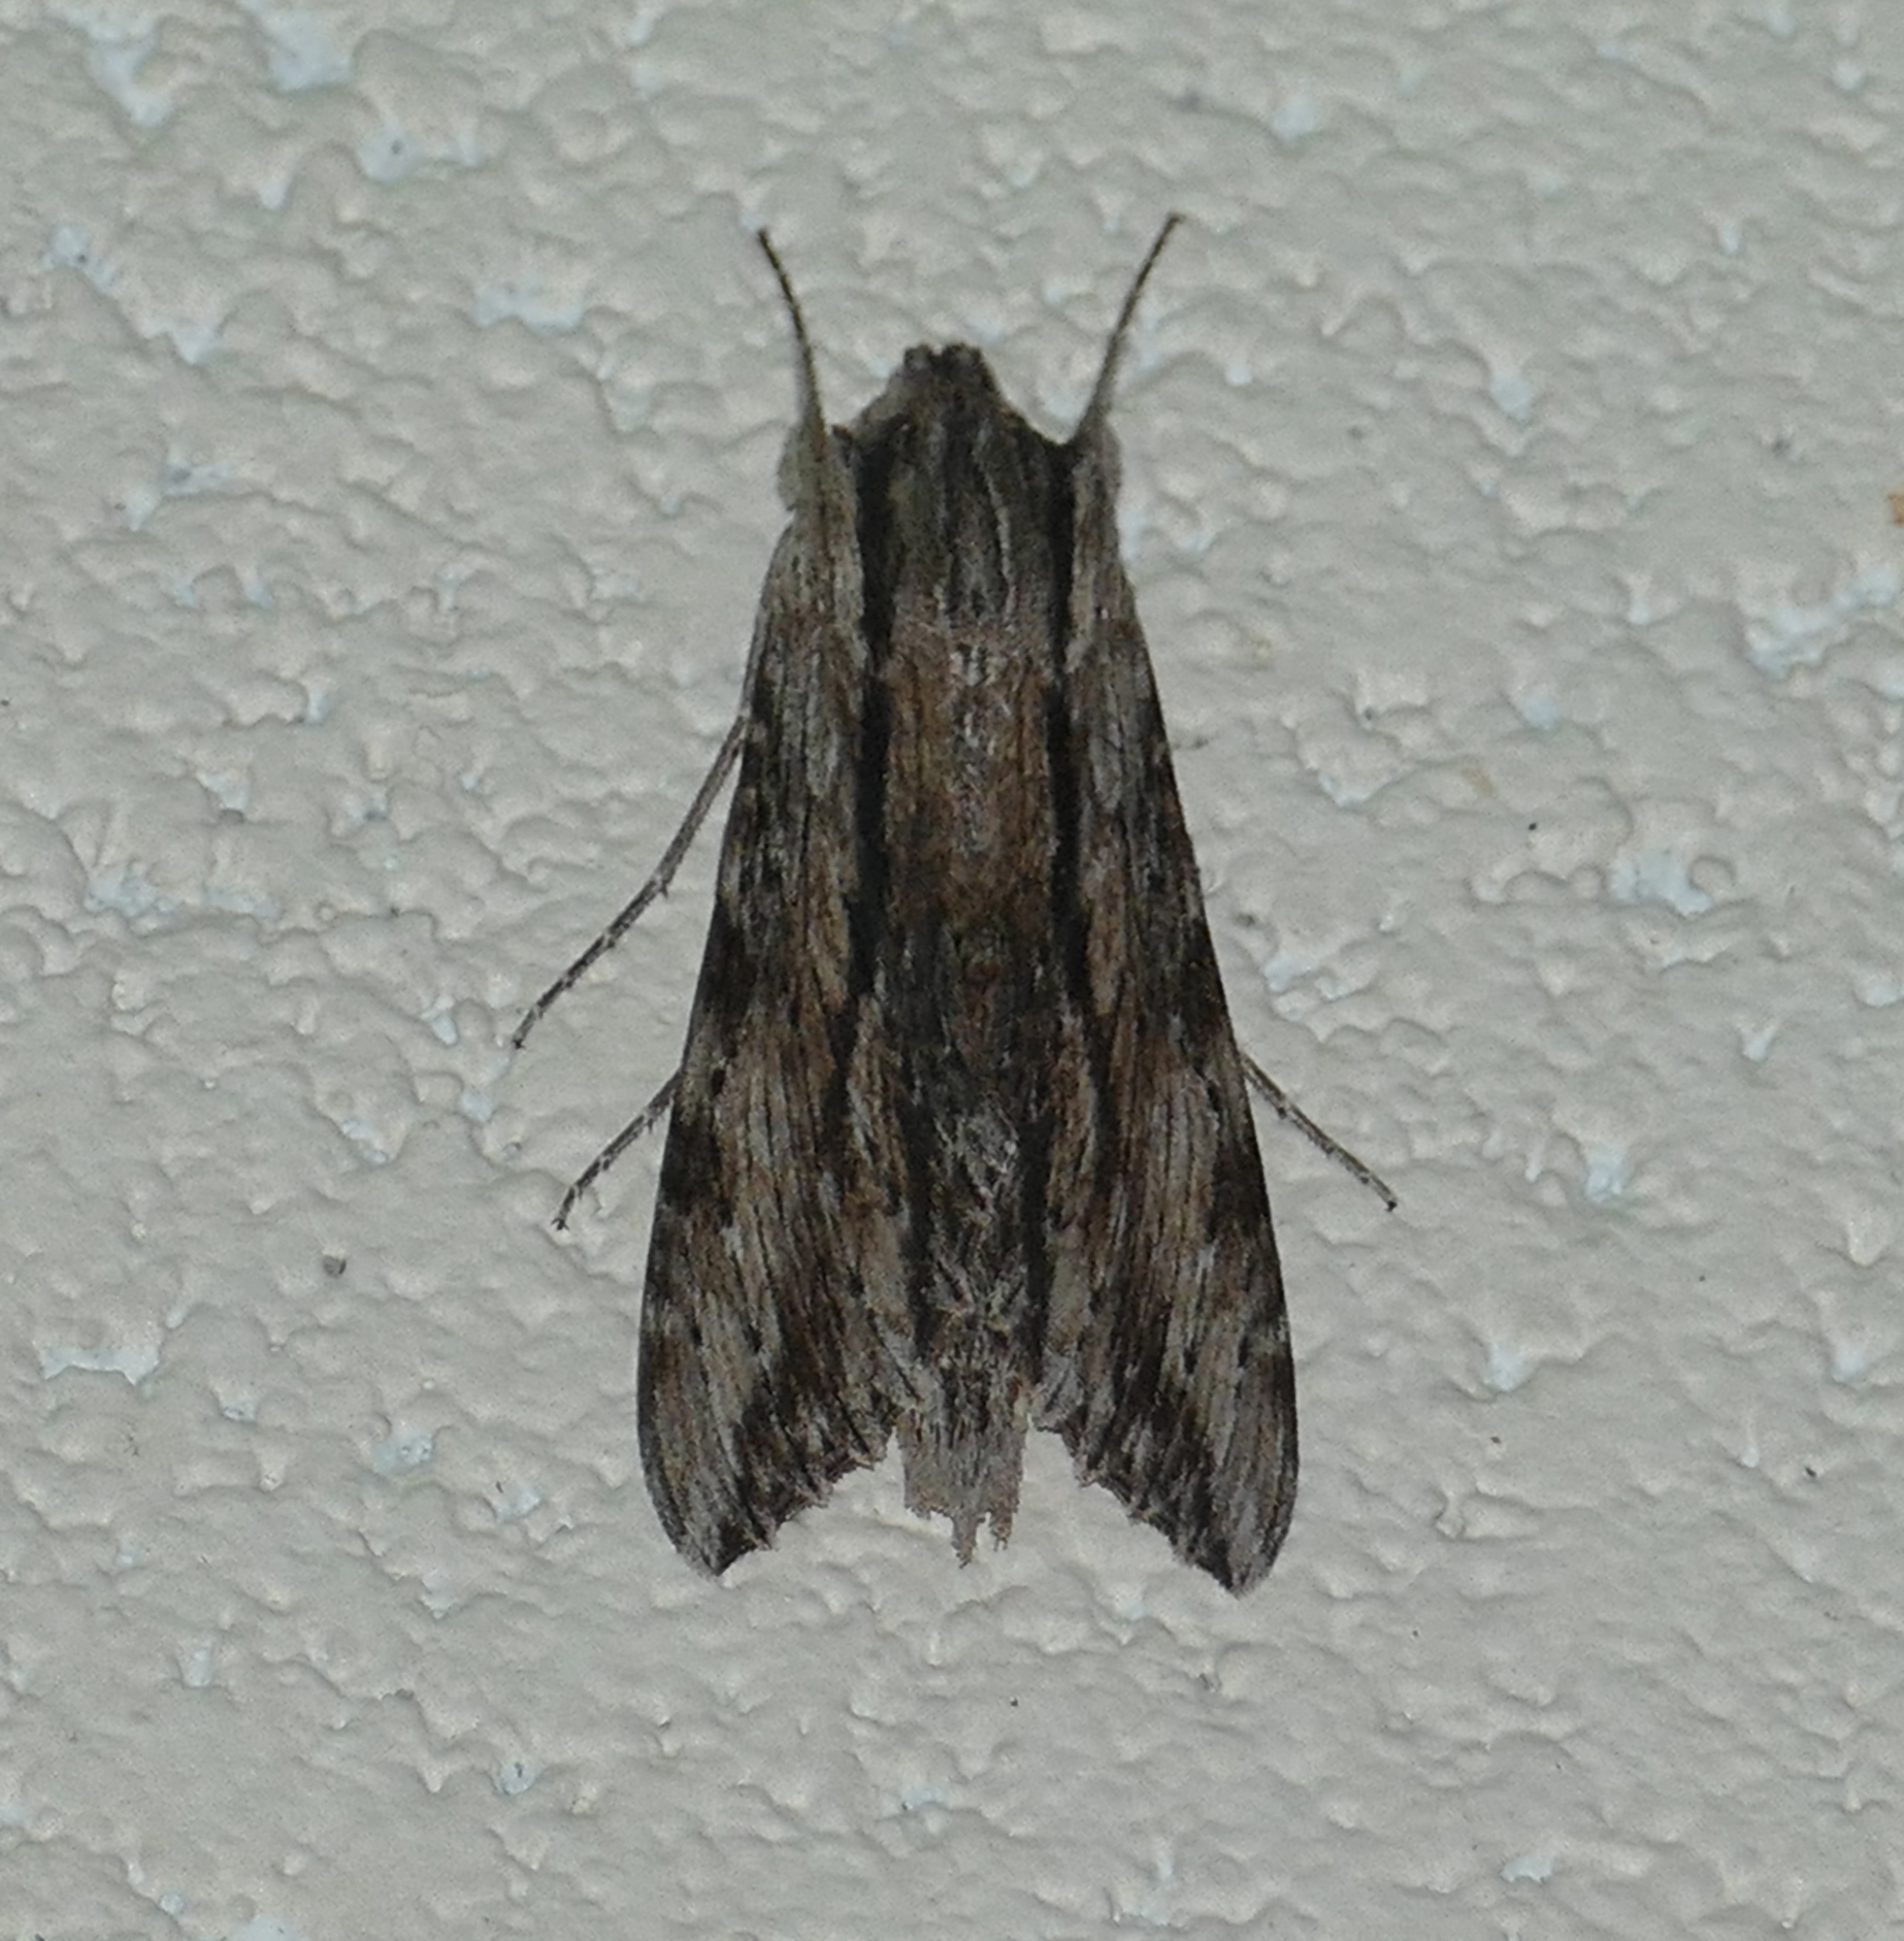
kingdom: Animalia
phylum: Arthropoda
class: Insecta
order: Lepidoptera
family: Sphingidae
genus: Erinnyis
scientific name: Erinnyis obscura
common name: Obscure sphinx
